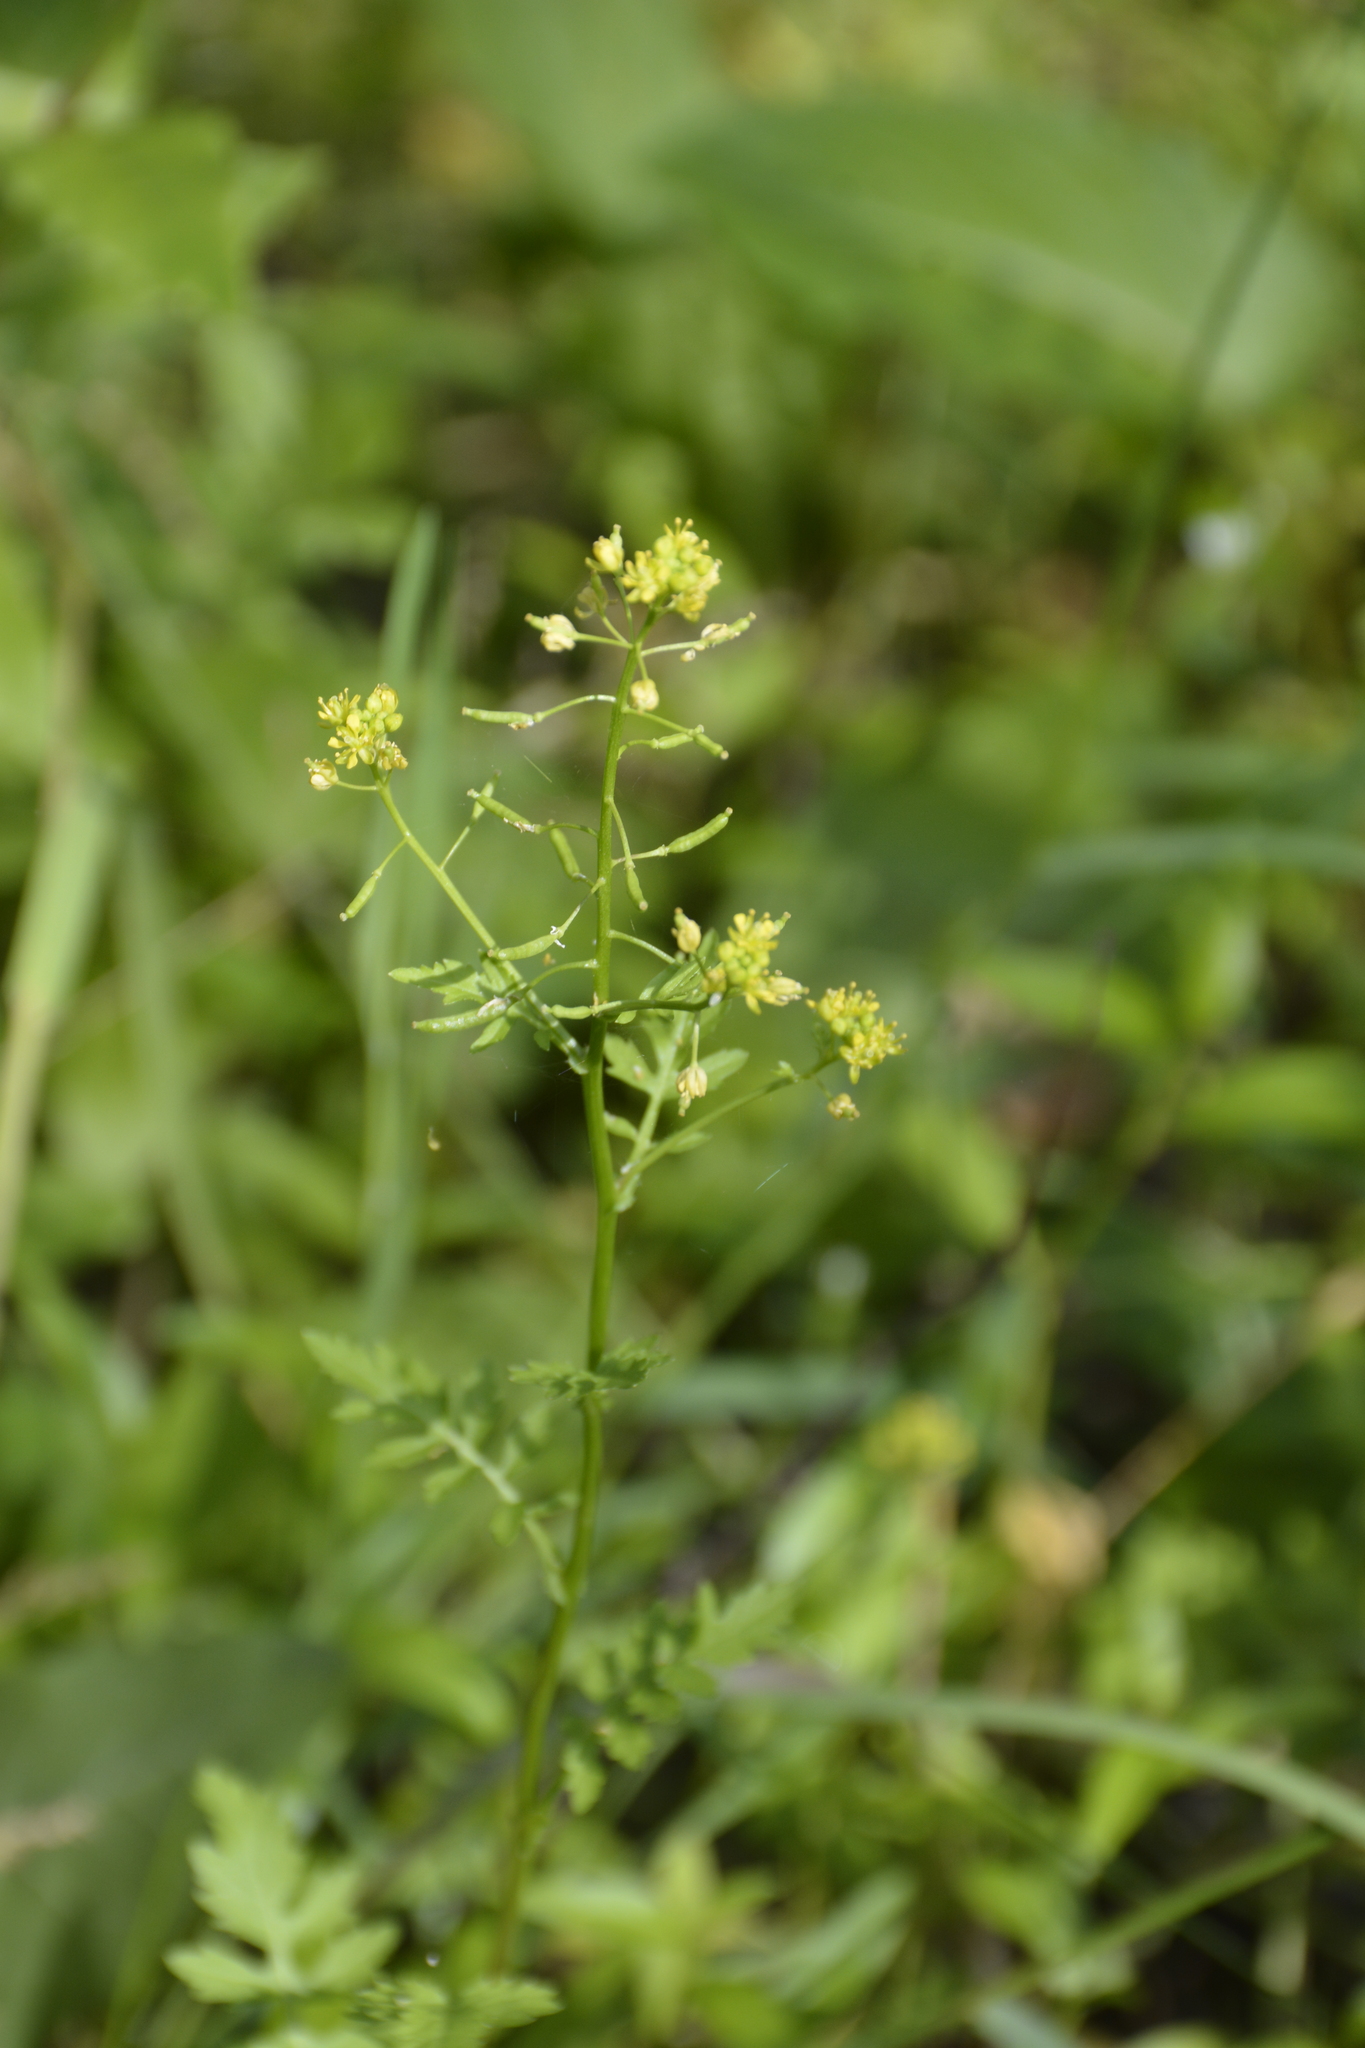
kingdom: Plantae
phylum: Tracheophyta
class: Magnoliopsida
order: Brassicales
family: Brassicaceae
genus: Rorippa
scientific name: Rorippa palustris
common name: Marsh yellow-cress
